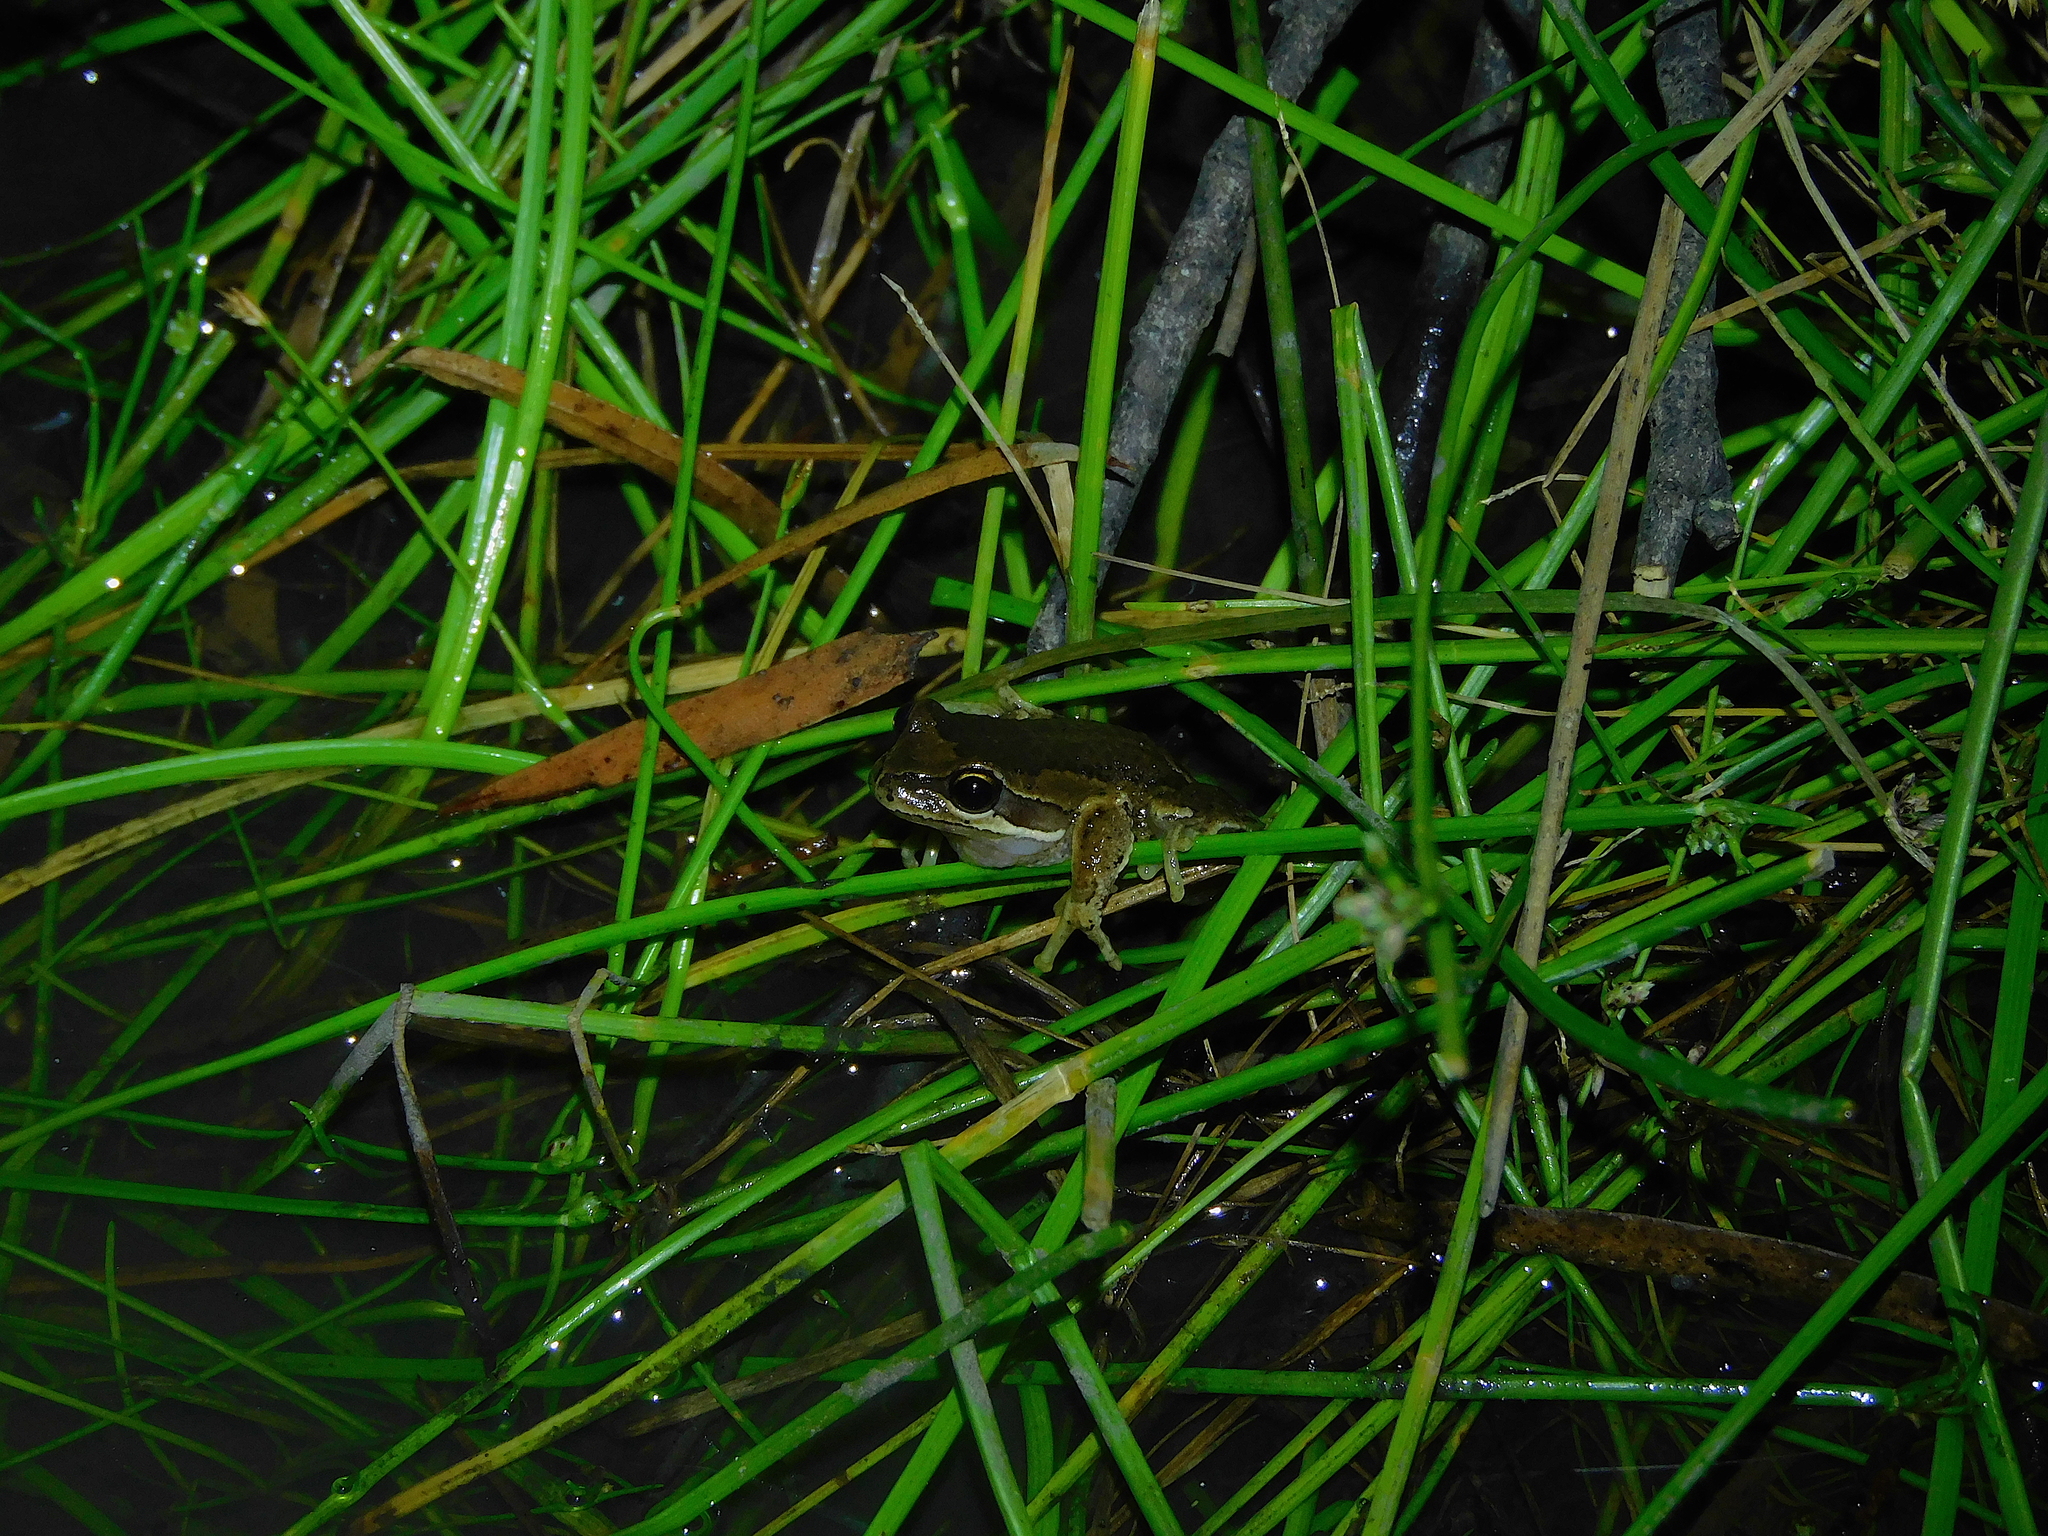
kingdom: Animalia
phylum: Chordata
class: Amphibia
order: Anura
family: Pelodryadidae
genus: Litoria
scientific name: Litoria ewingii
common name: Southern brown tree frog
